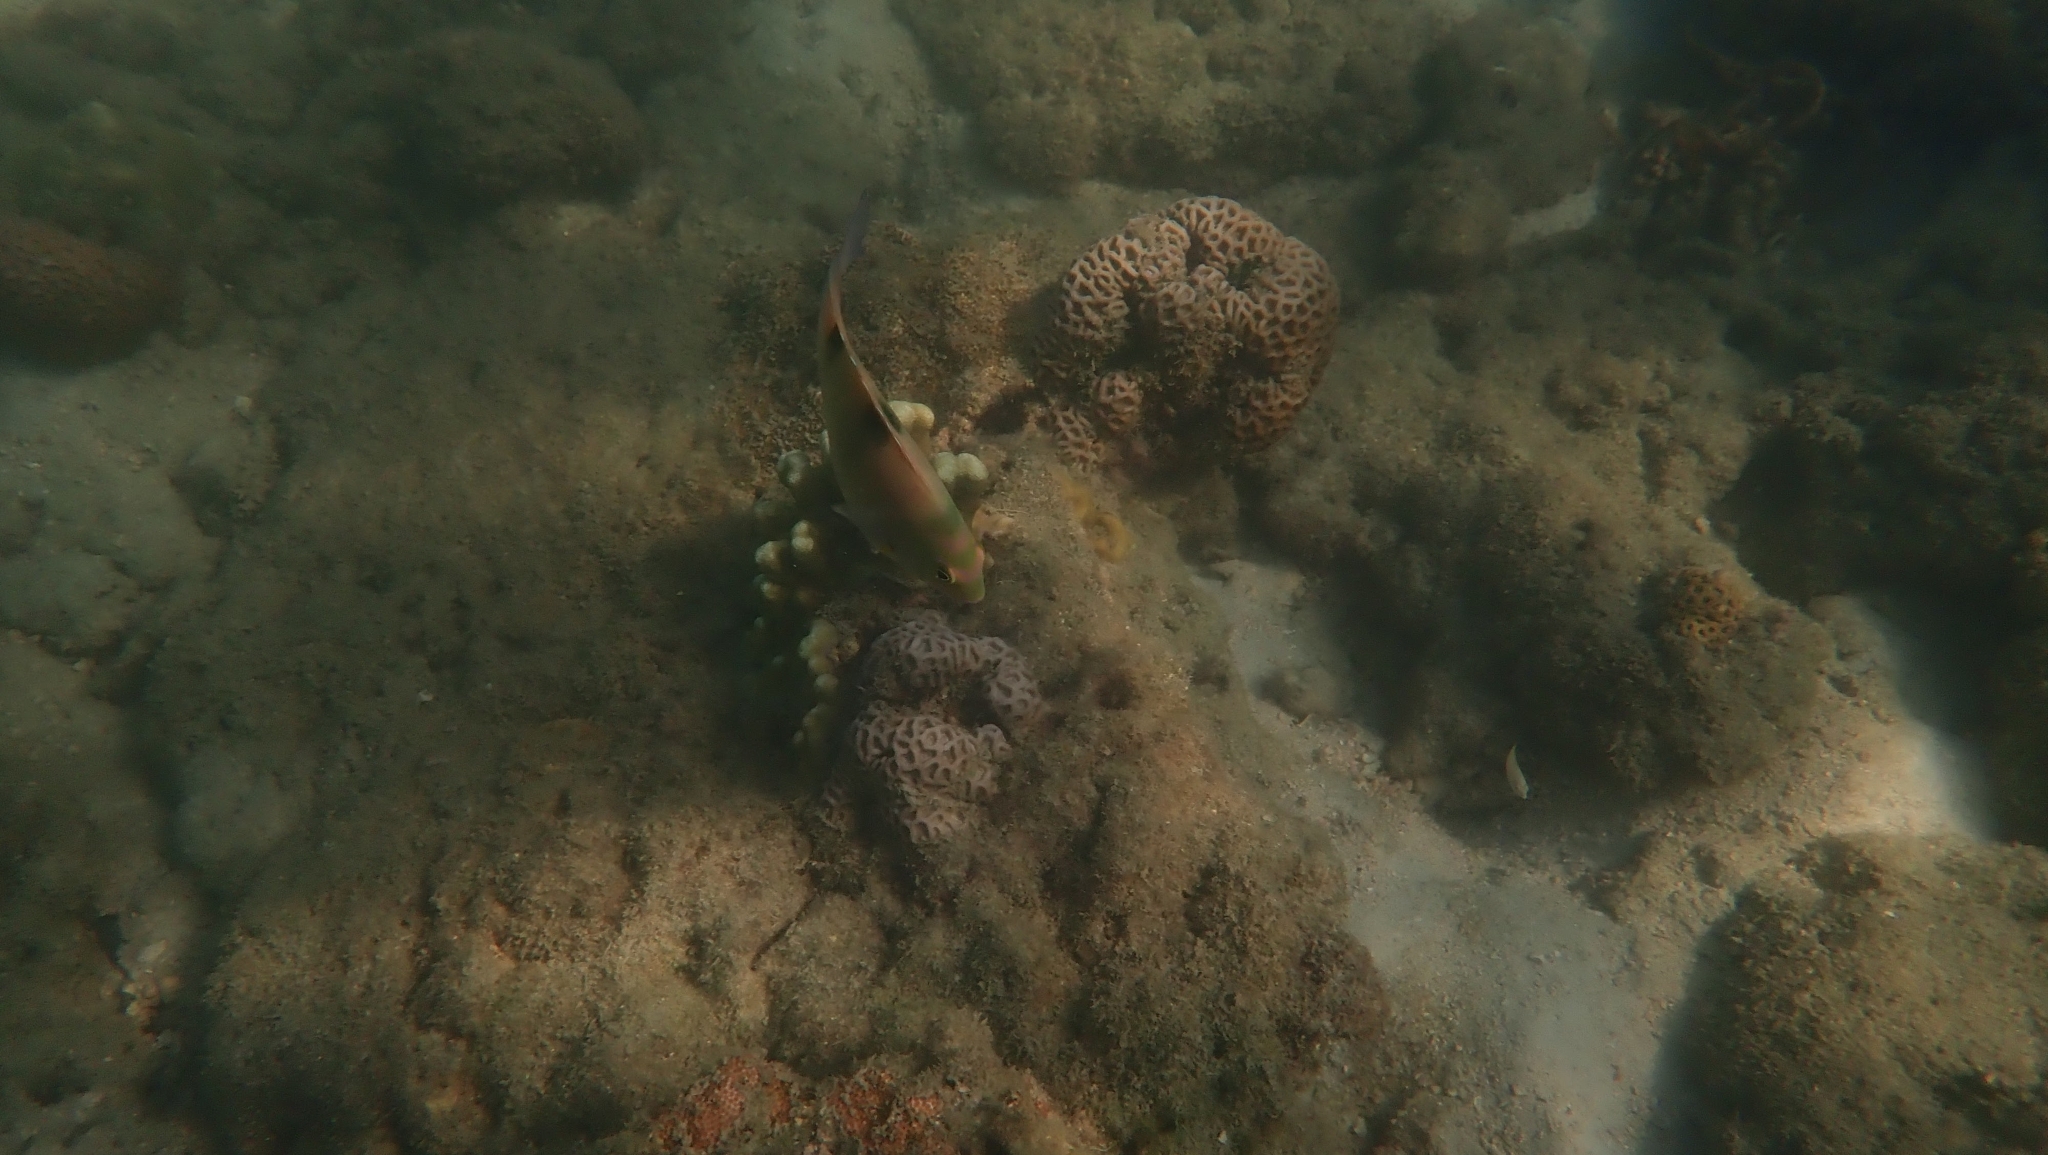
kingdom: Animalia
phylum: Chordata
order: Perciformes
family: Pomacentridae
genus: Dischistodus
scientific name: Dischistodus perspicillatus
